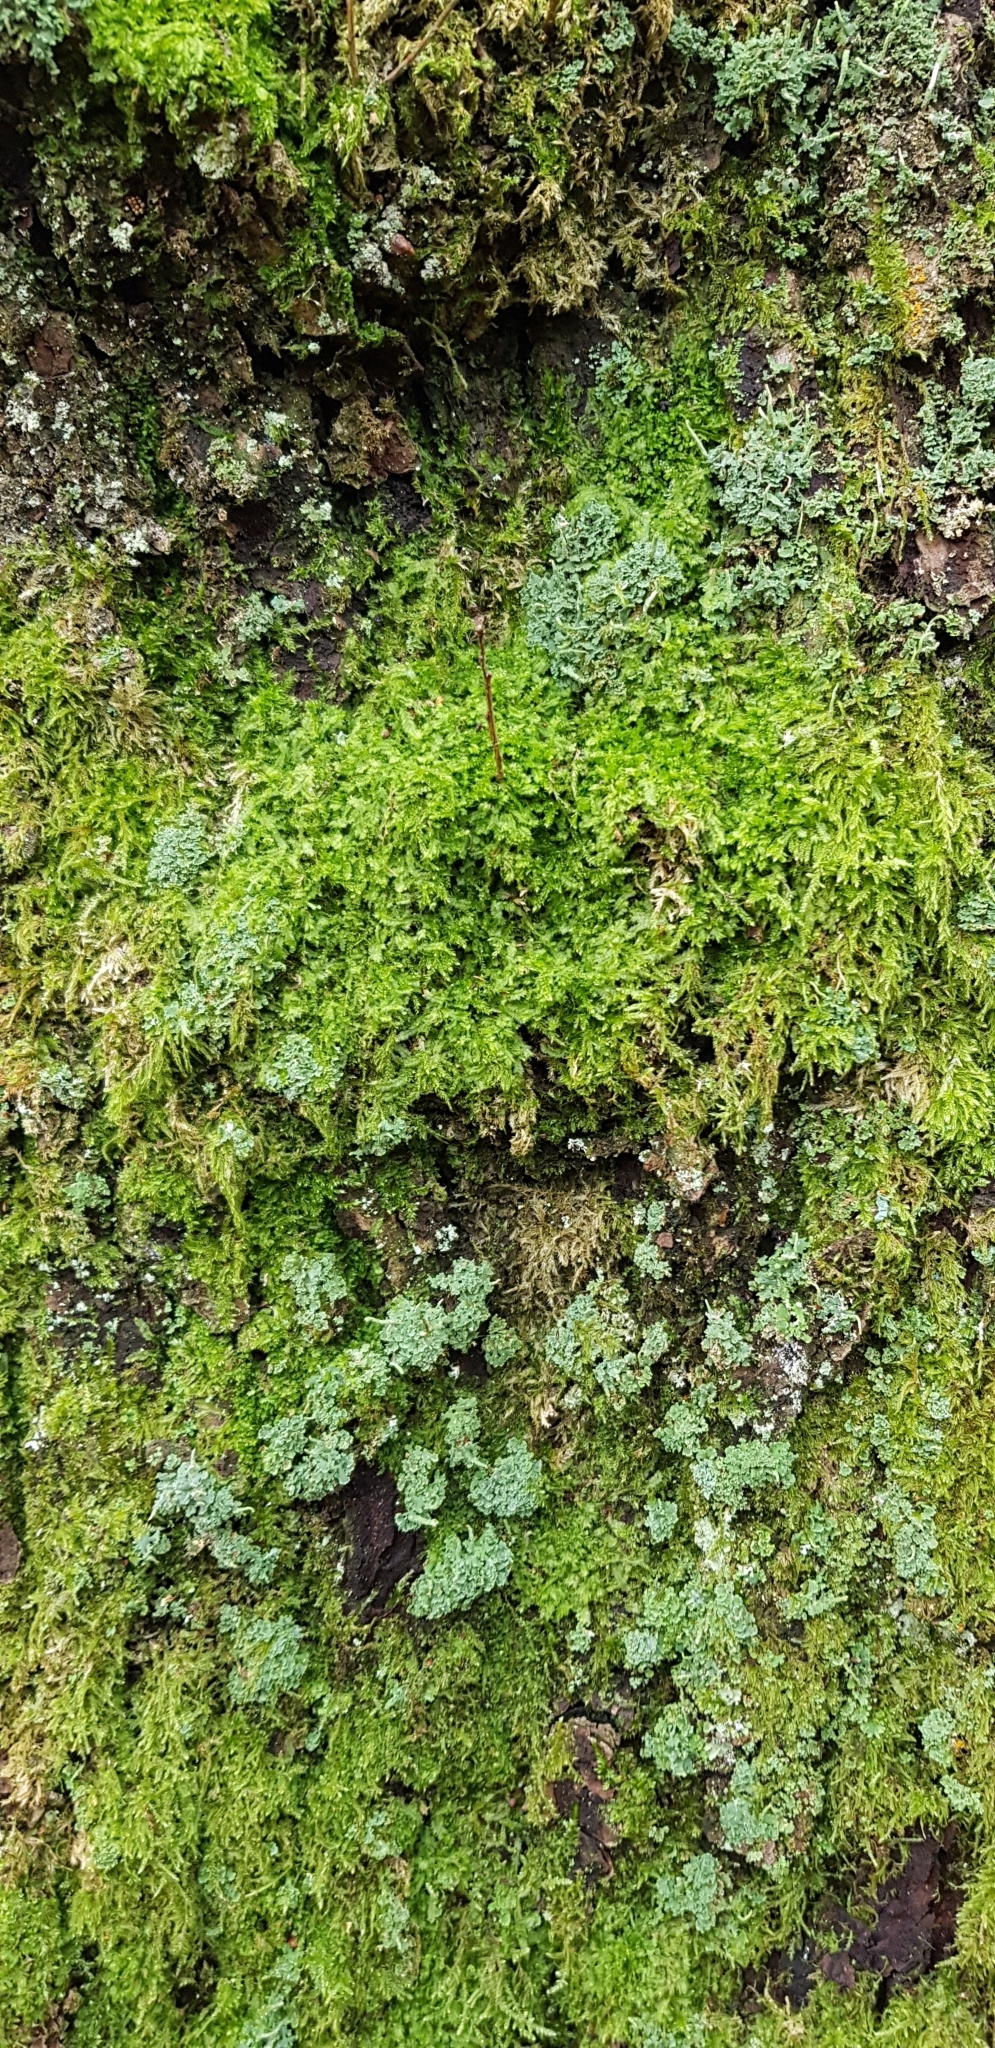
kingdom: Plantae
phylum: Marchantiophyta
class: Jungermanniopsida
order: Jungermanniales
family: Lophocoleaceae
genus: Lophocolea
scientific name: Lophocolea bidentata
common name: Bifid crestwort
